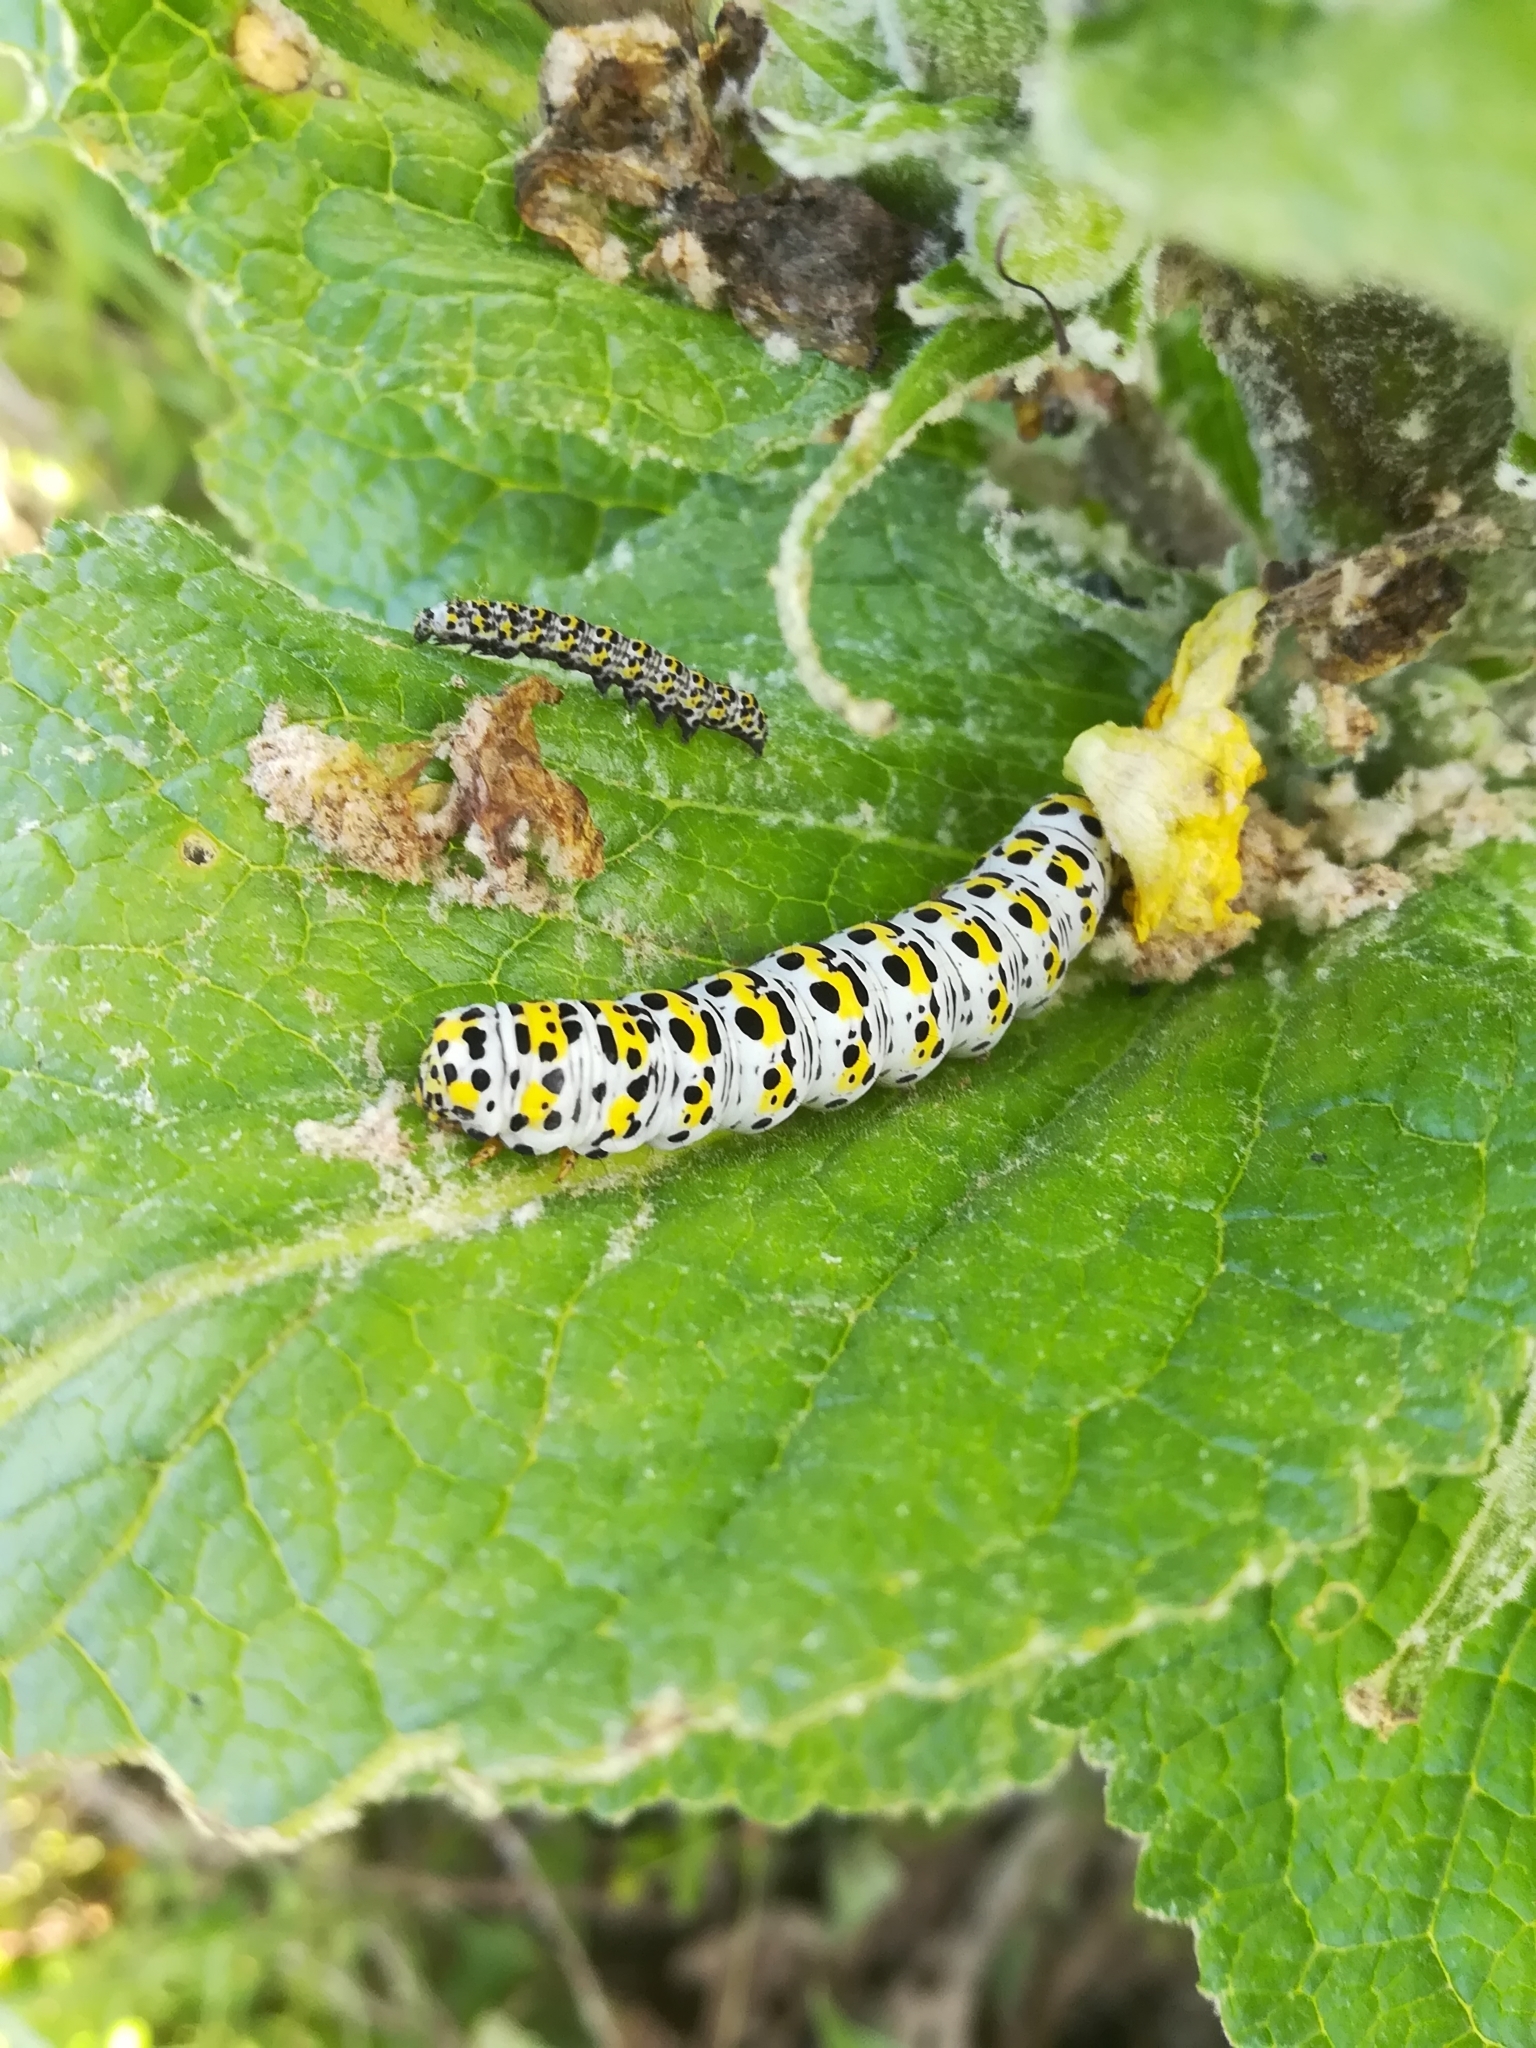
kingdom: Animalia
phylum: Arthropoda
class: Insecta
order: Lepidoptera
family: Noctuidae
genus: Cucullia
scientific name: Cucullia verbasci
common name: Mullein
